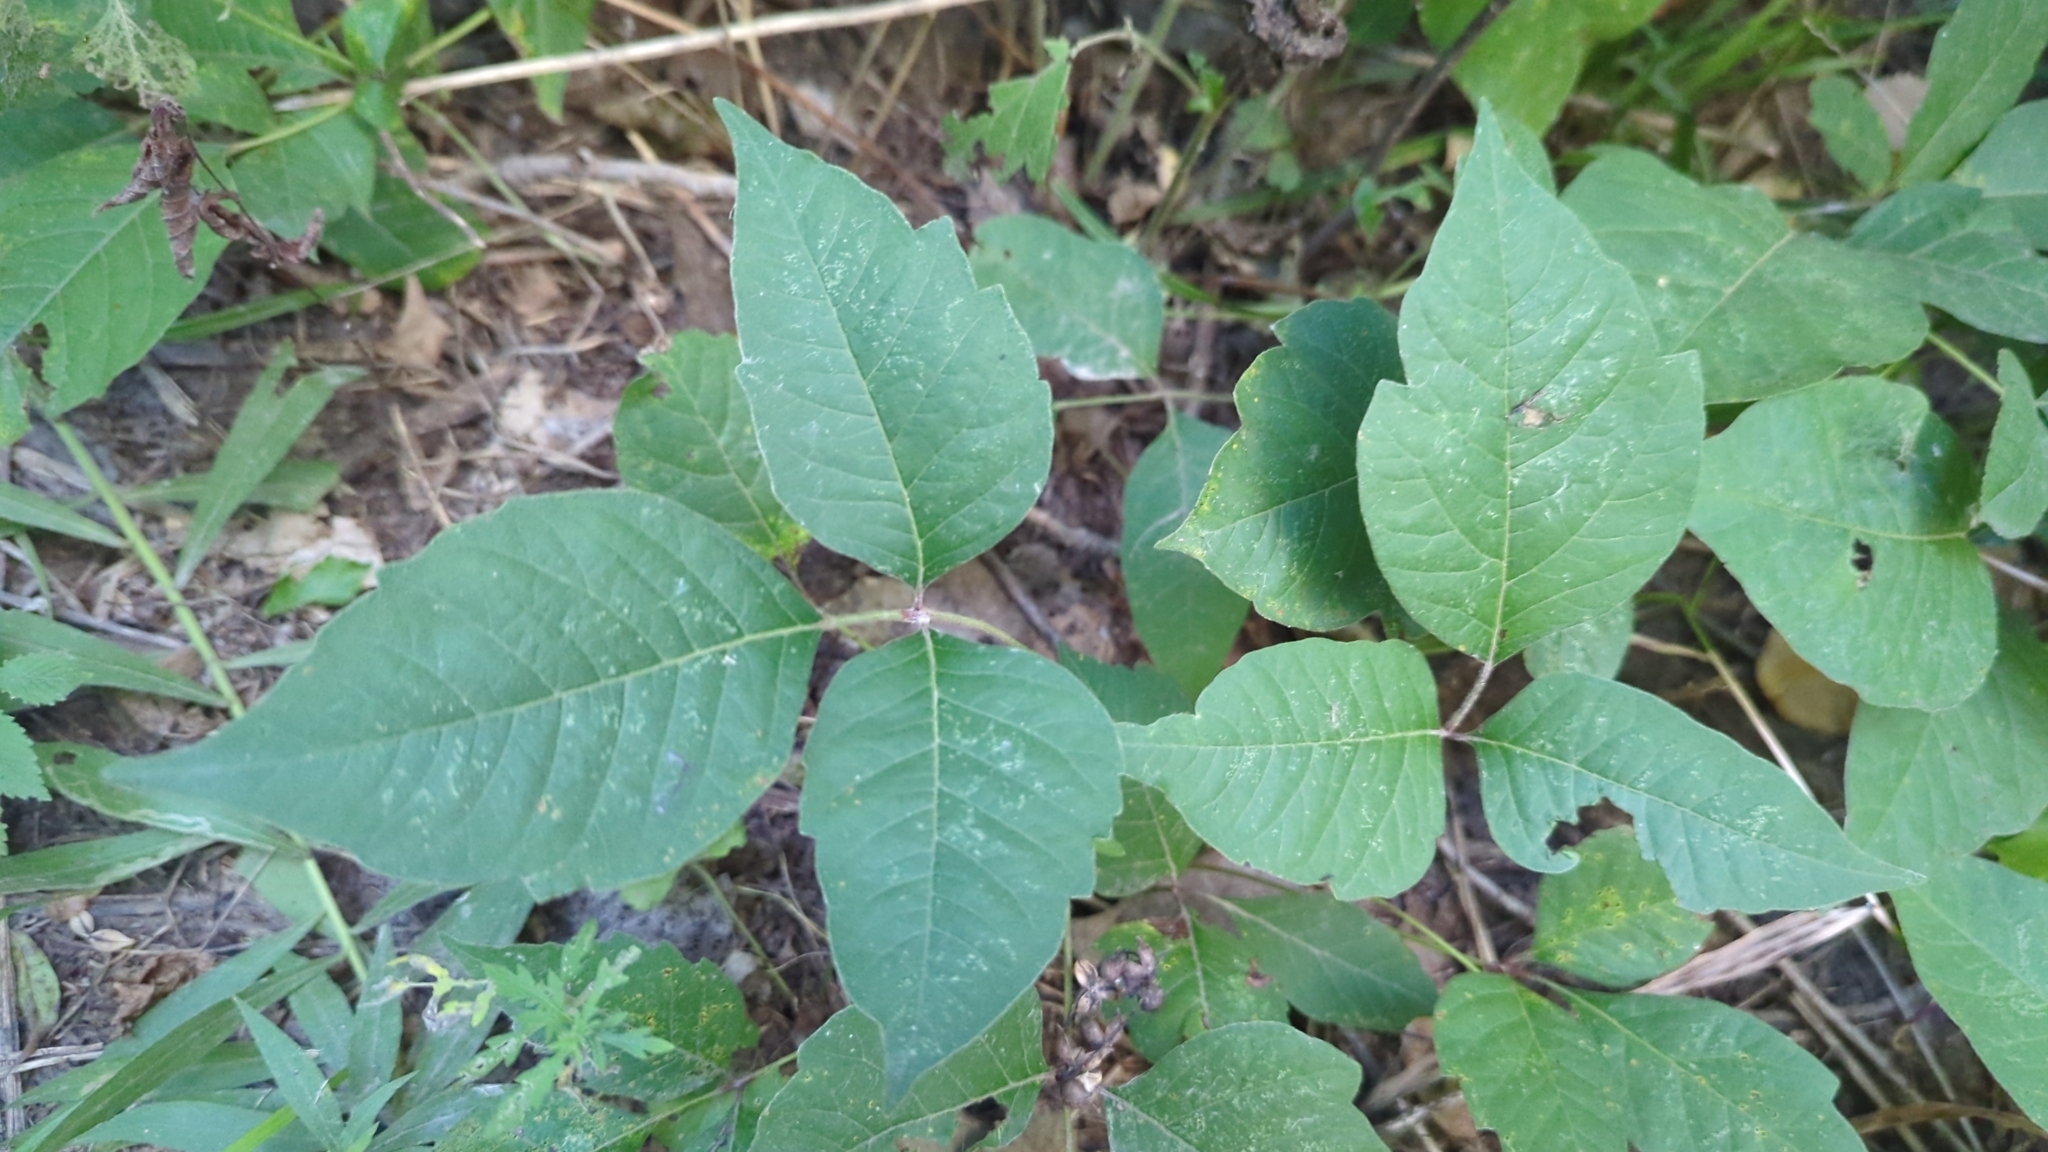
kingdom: Plantae
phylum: Tracheophyta
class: Magnoliopsida
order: Sapindales
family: Anacardiaceae
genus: Toxicodendron
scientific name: Toxicodendron radicans
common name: Poison ivy
